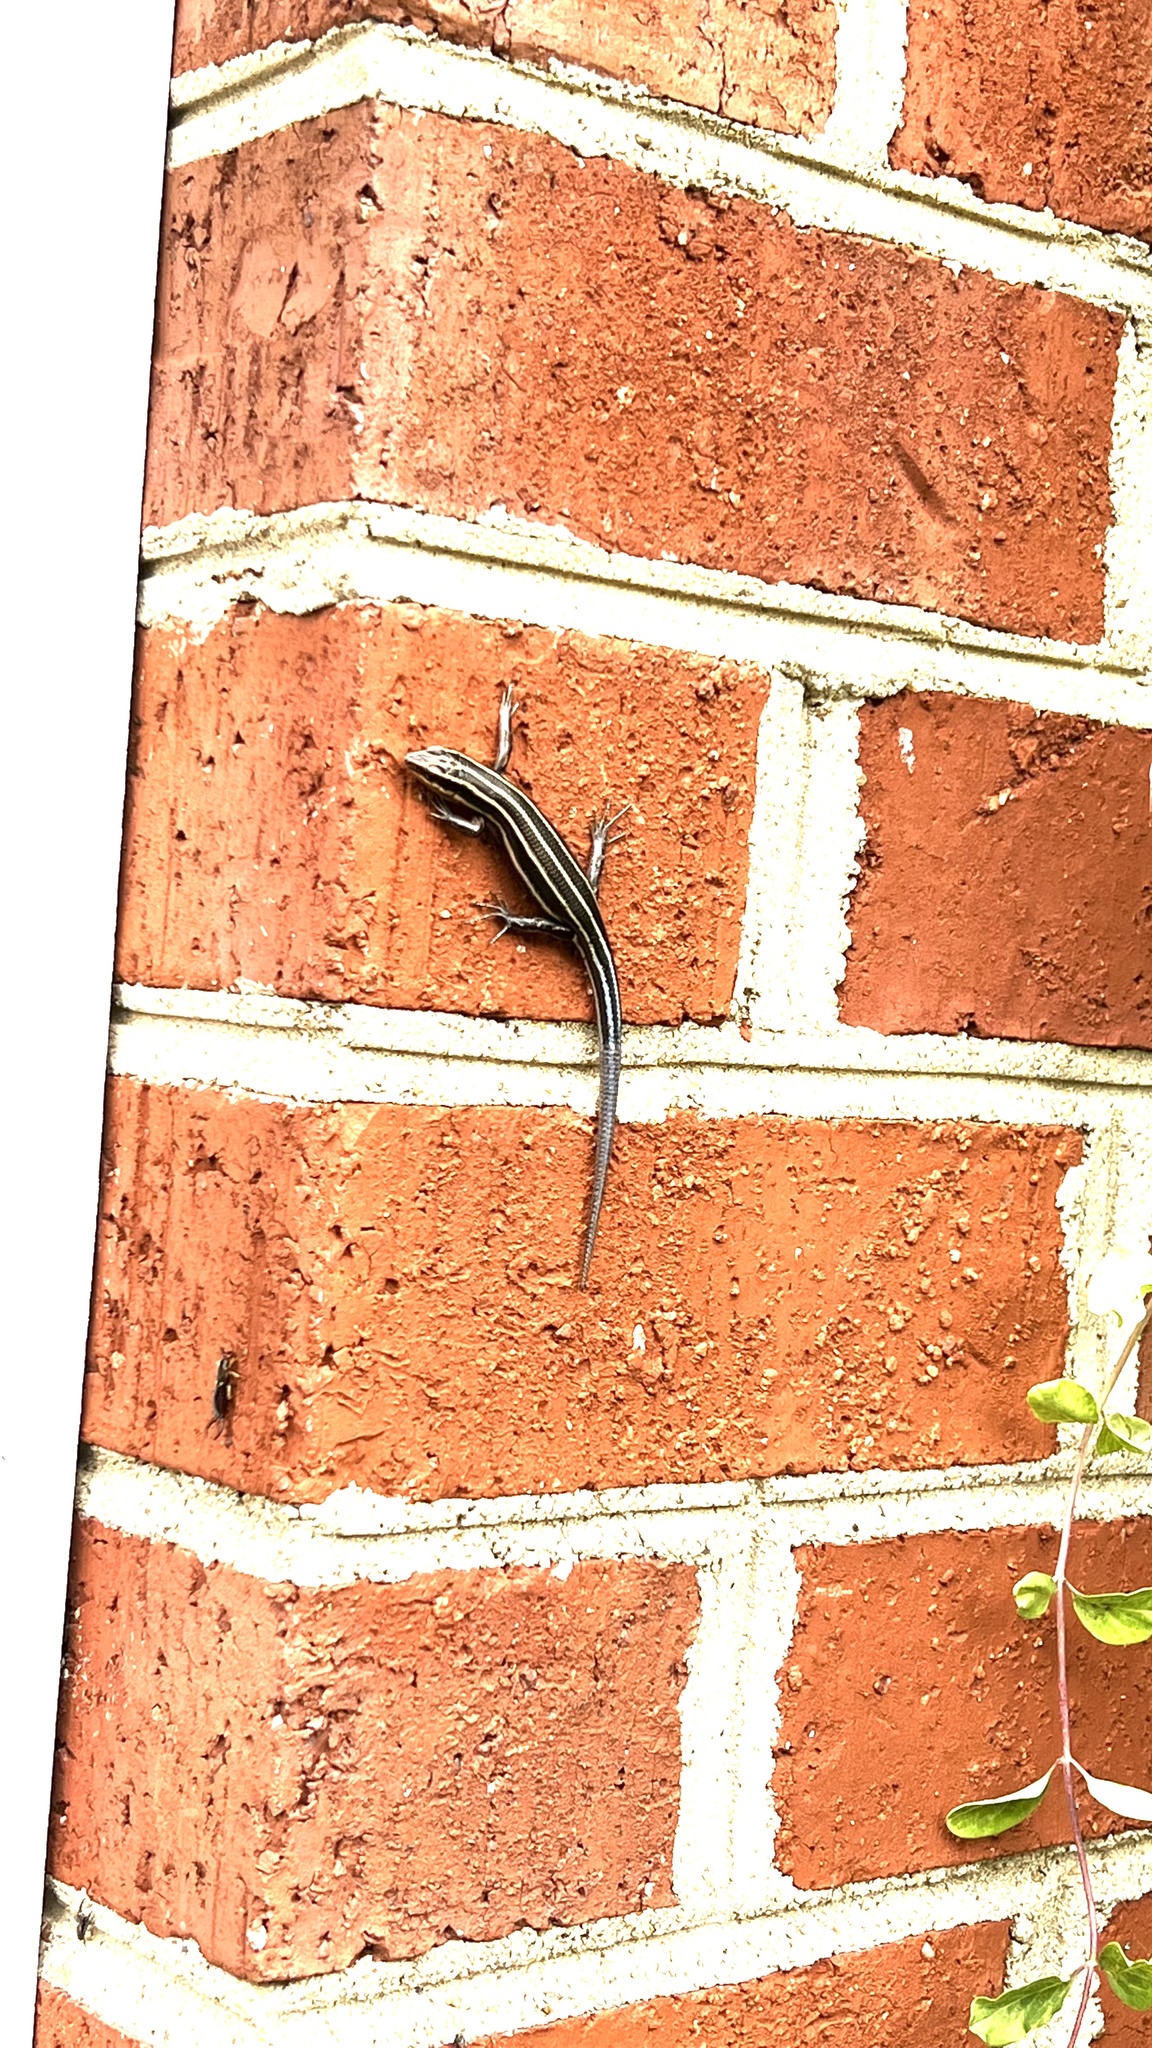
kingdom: Animalia
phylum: Chordata
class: Squamata
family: Scincidae
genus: Plestiodon
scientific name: Plestiodon fasciatus
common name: Five-lined skink
